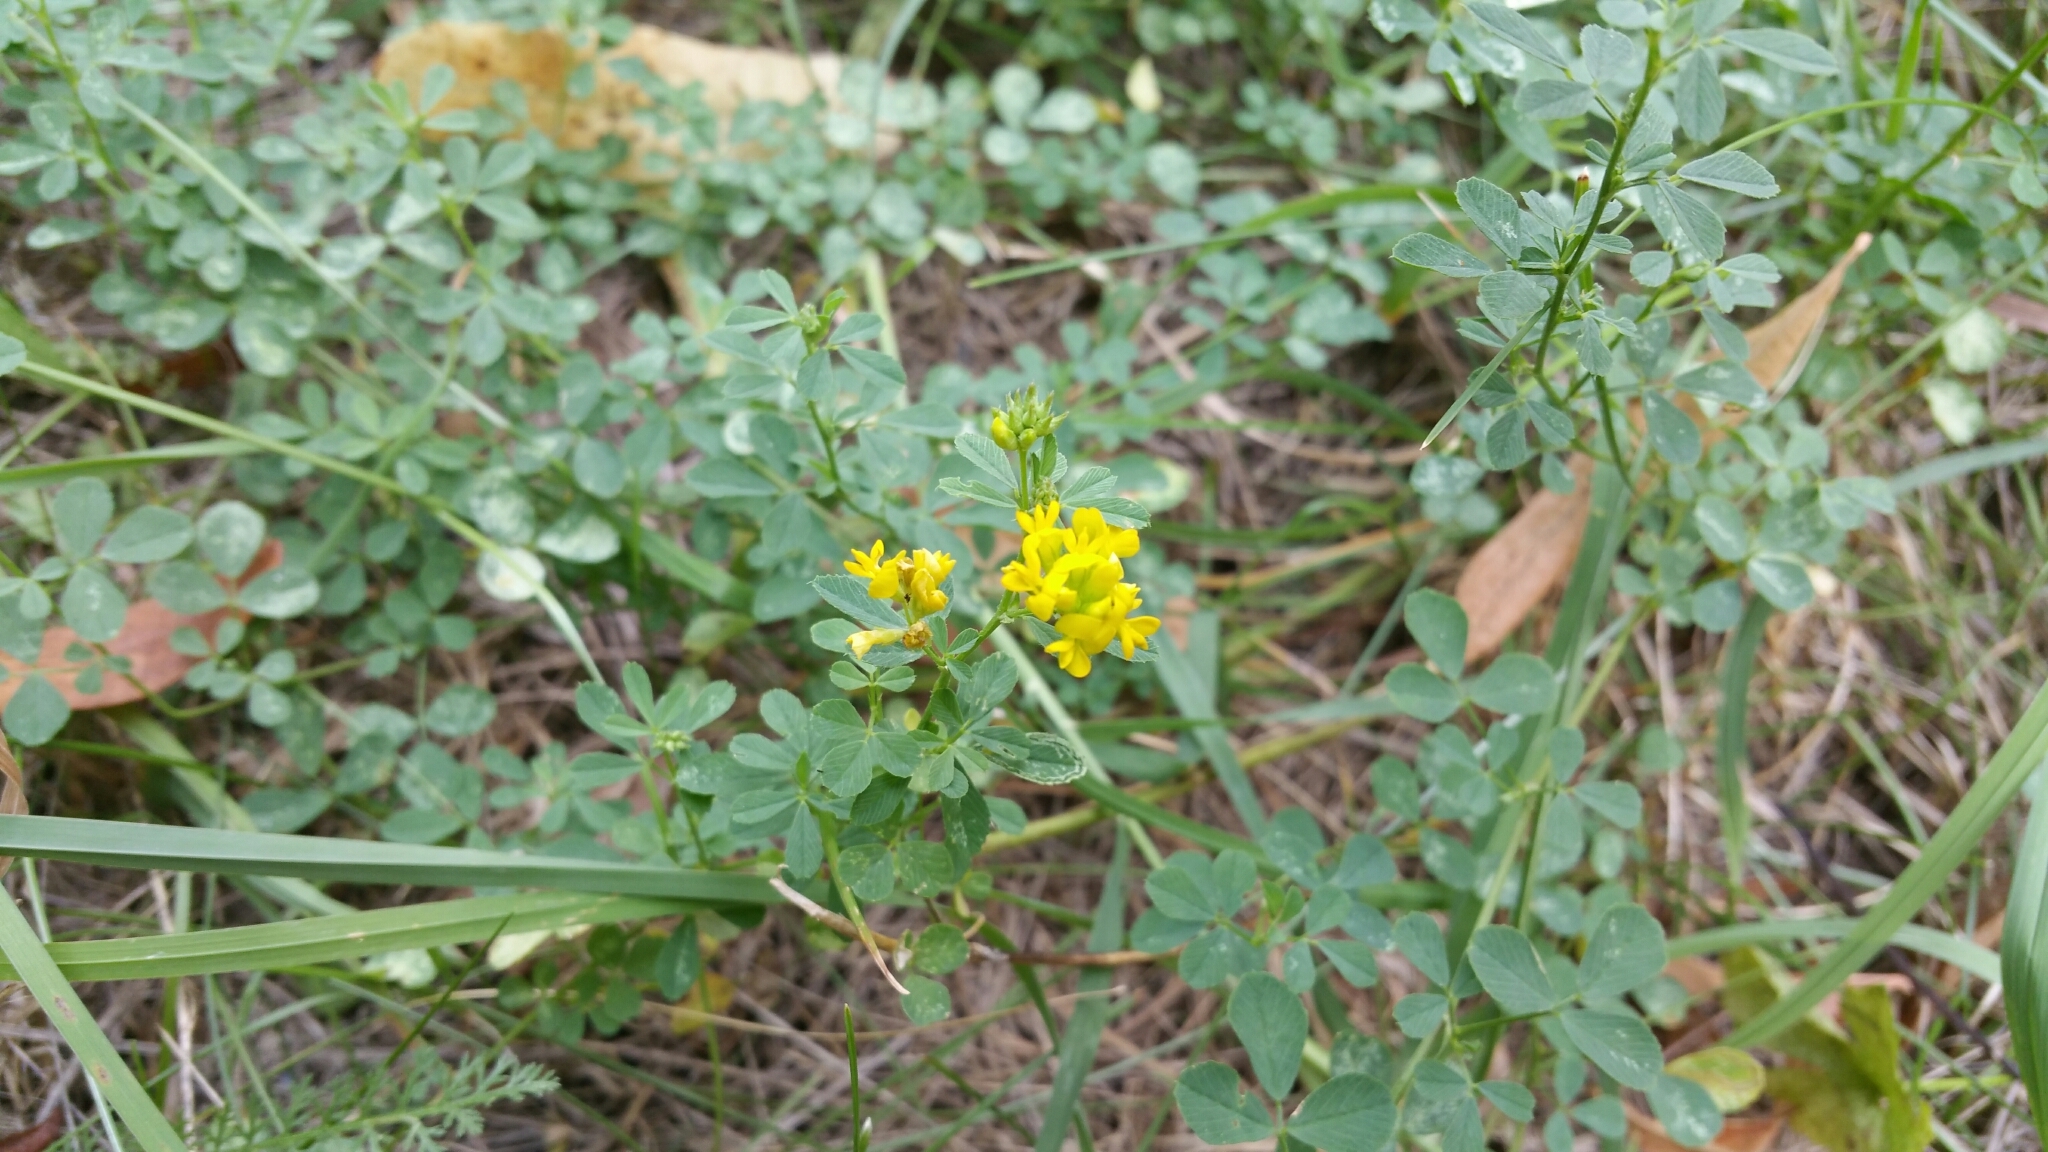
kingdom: Plantae
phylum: Tracheophyta
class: Magnoliopsida
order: Fabales
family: Fabaceae
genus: Medicago
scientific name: Medicago falcata
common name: Sickle medick
